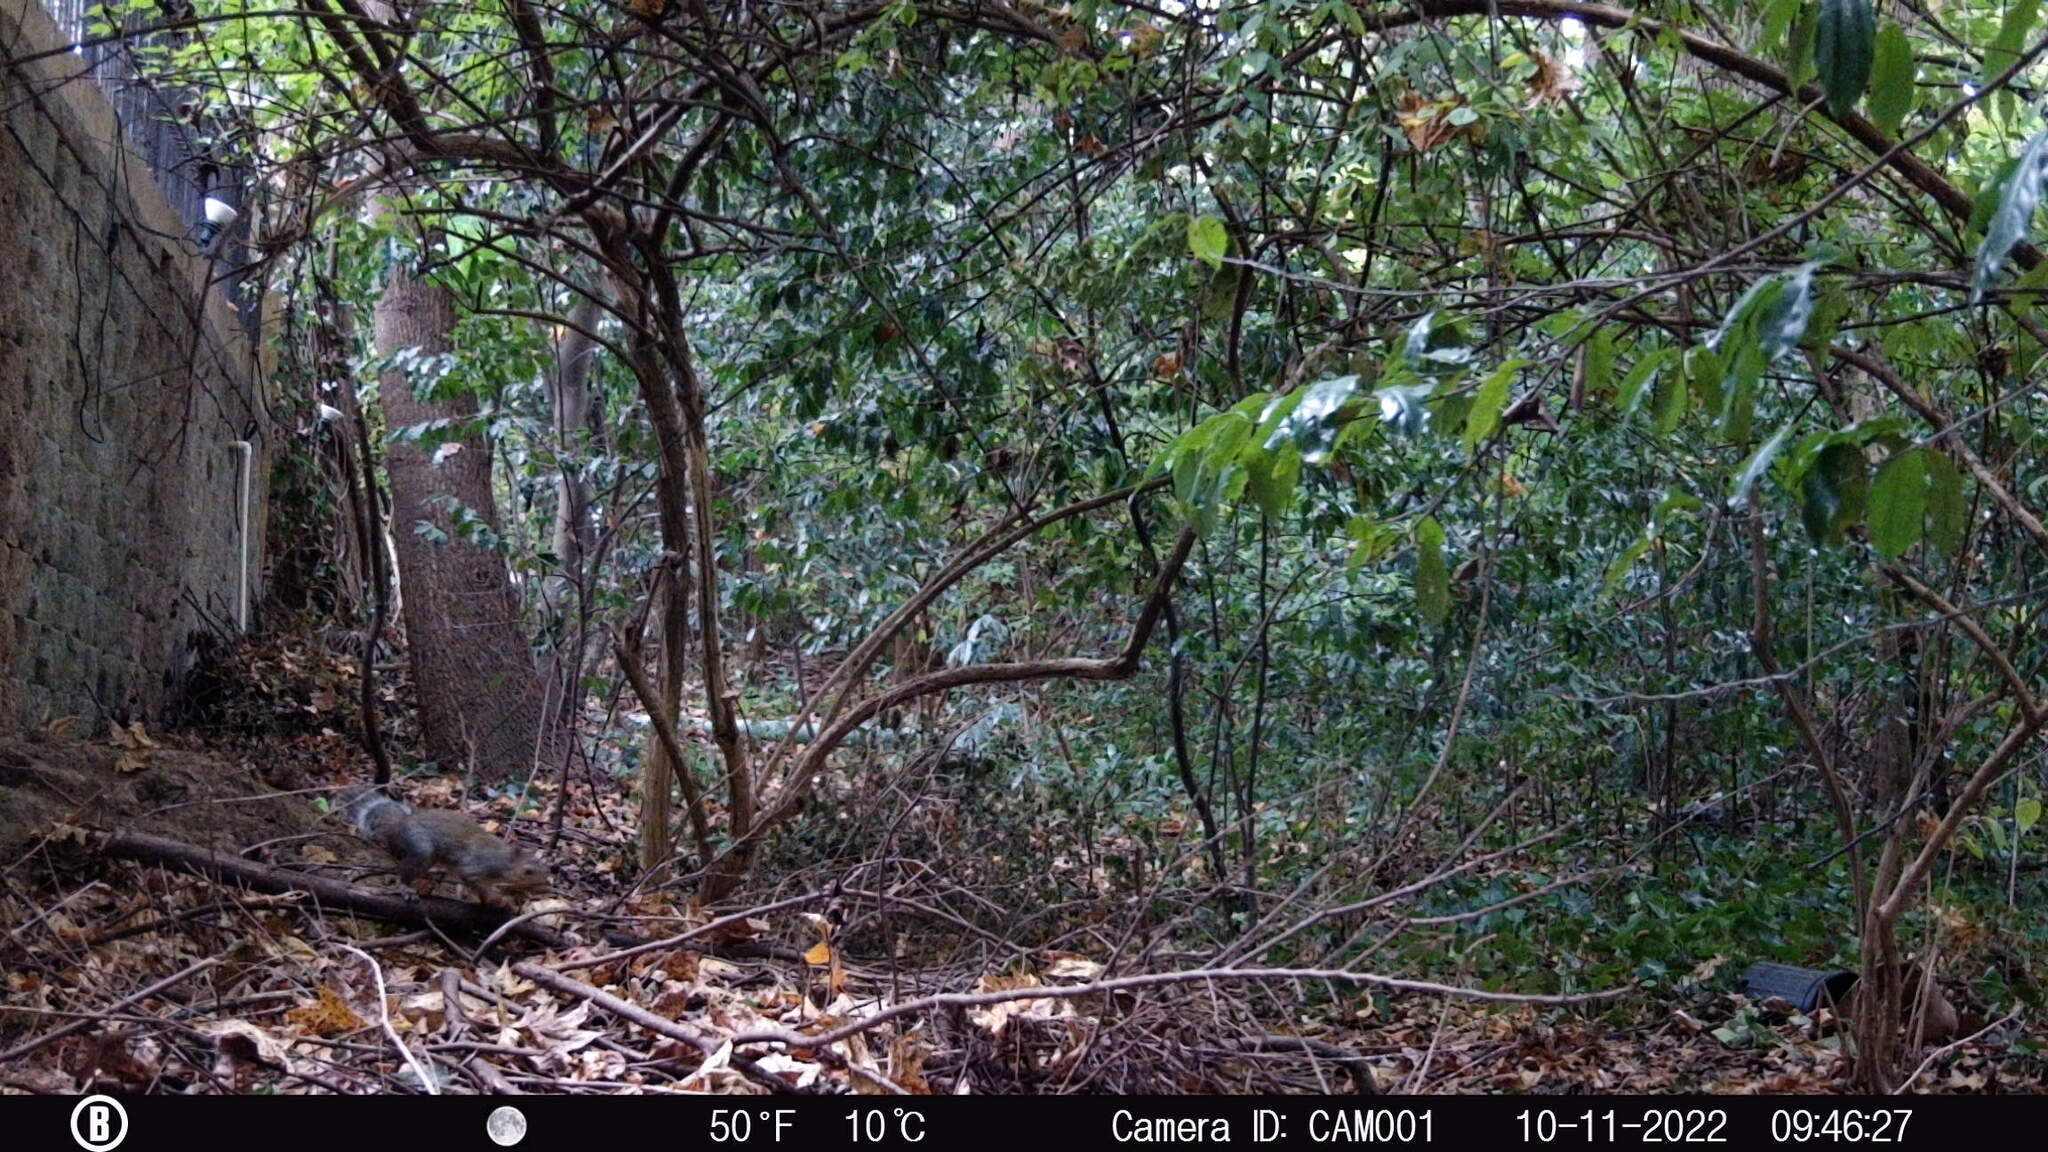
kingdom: Animalia
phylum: Chordata
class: Mammalia
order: Rodentia
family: Sciuridae
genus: Sciurus
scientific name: Sciurus carolinensis
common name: Eastern gray squirrel
